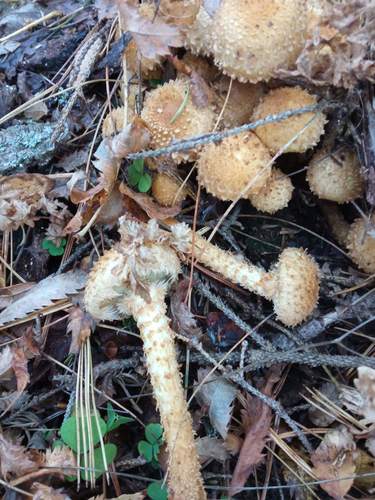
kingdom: Fungi
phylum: Basidiomycota
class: Agaricomycetes
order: Agaricales
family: Strophariaceae
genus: Pholiota
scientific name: Pholiota squarrosa
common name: Shaggy pholiota
